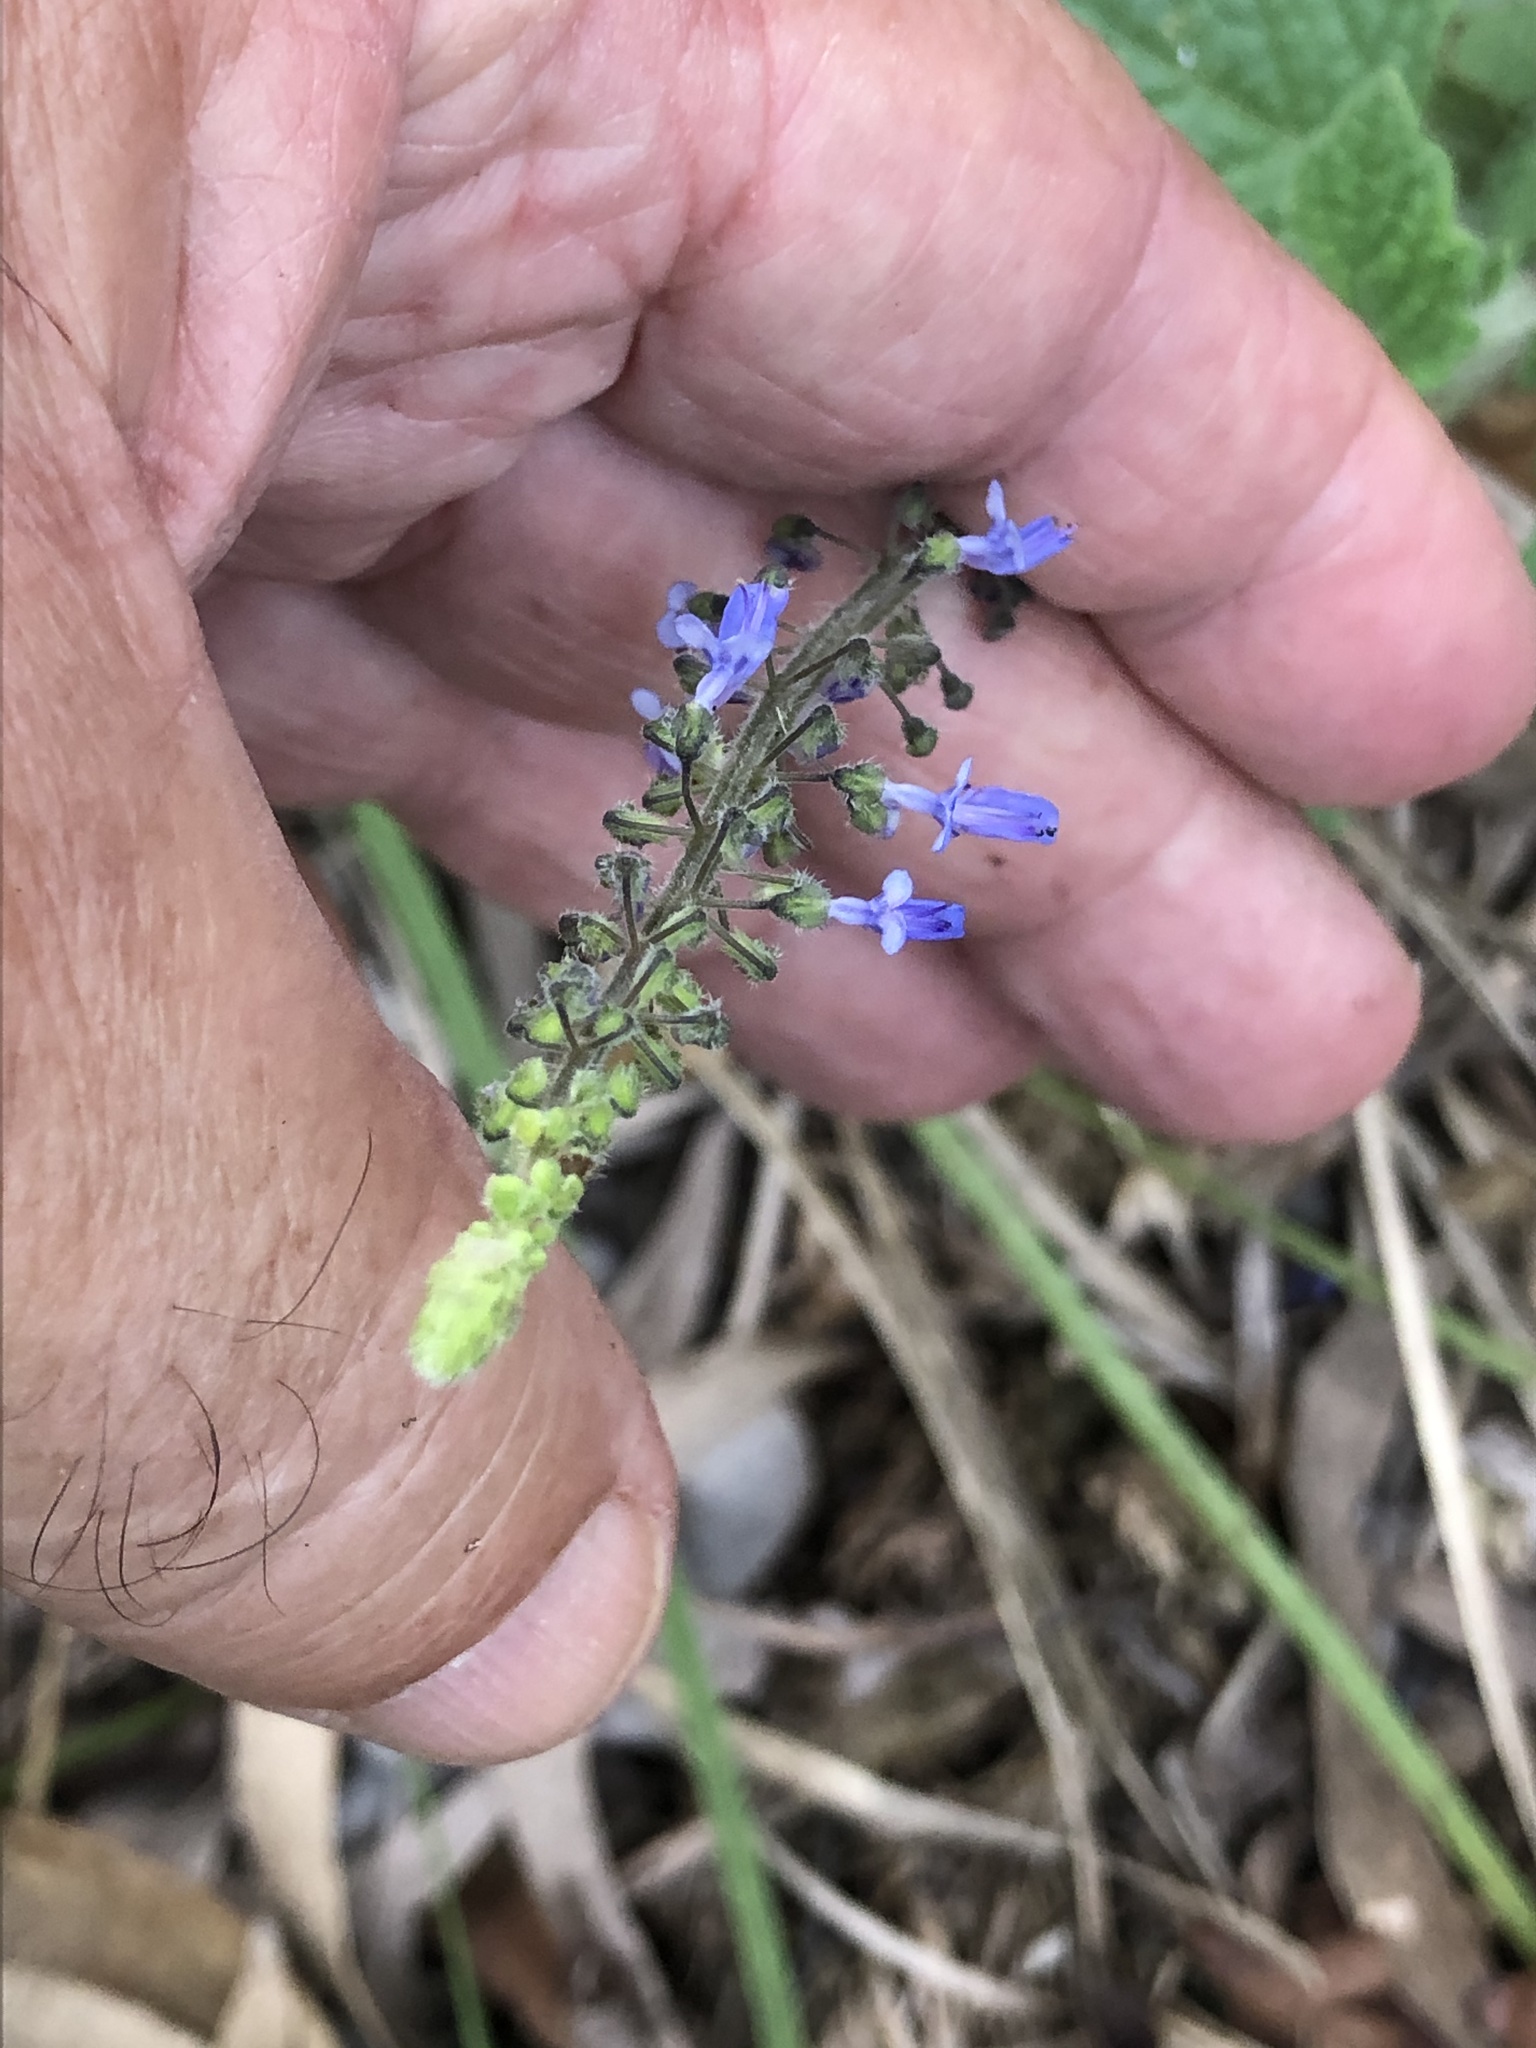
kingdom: Plantae
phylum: Tracheophyta
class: Magnoliopsida
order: Lamiales
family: Lamiaceae
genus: Coleus
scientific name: Coleus australis
